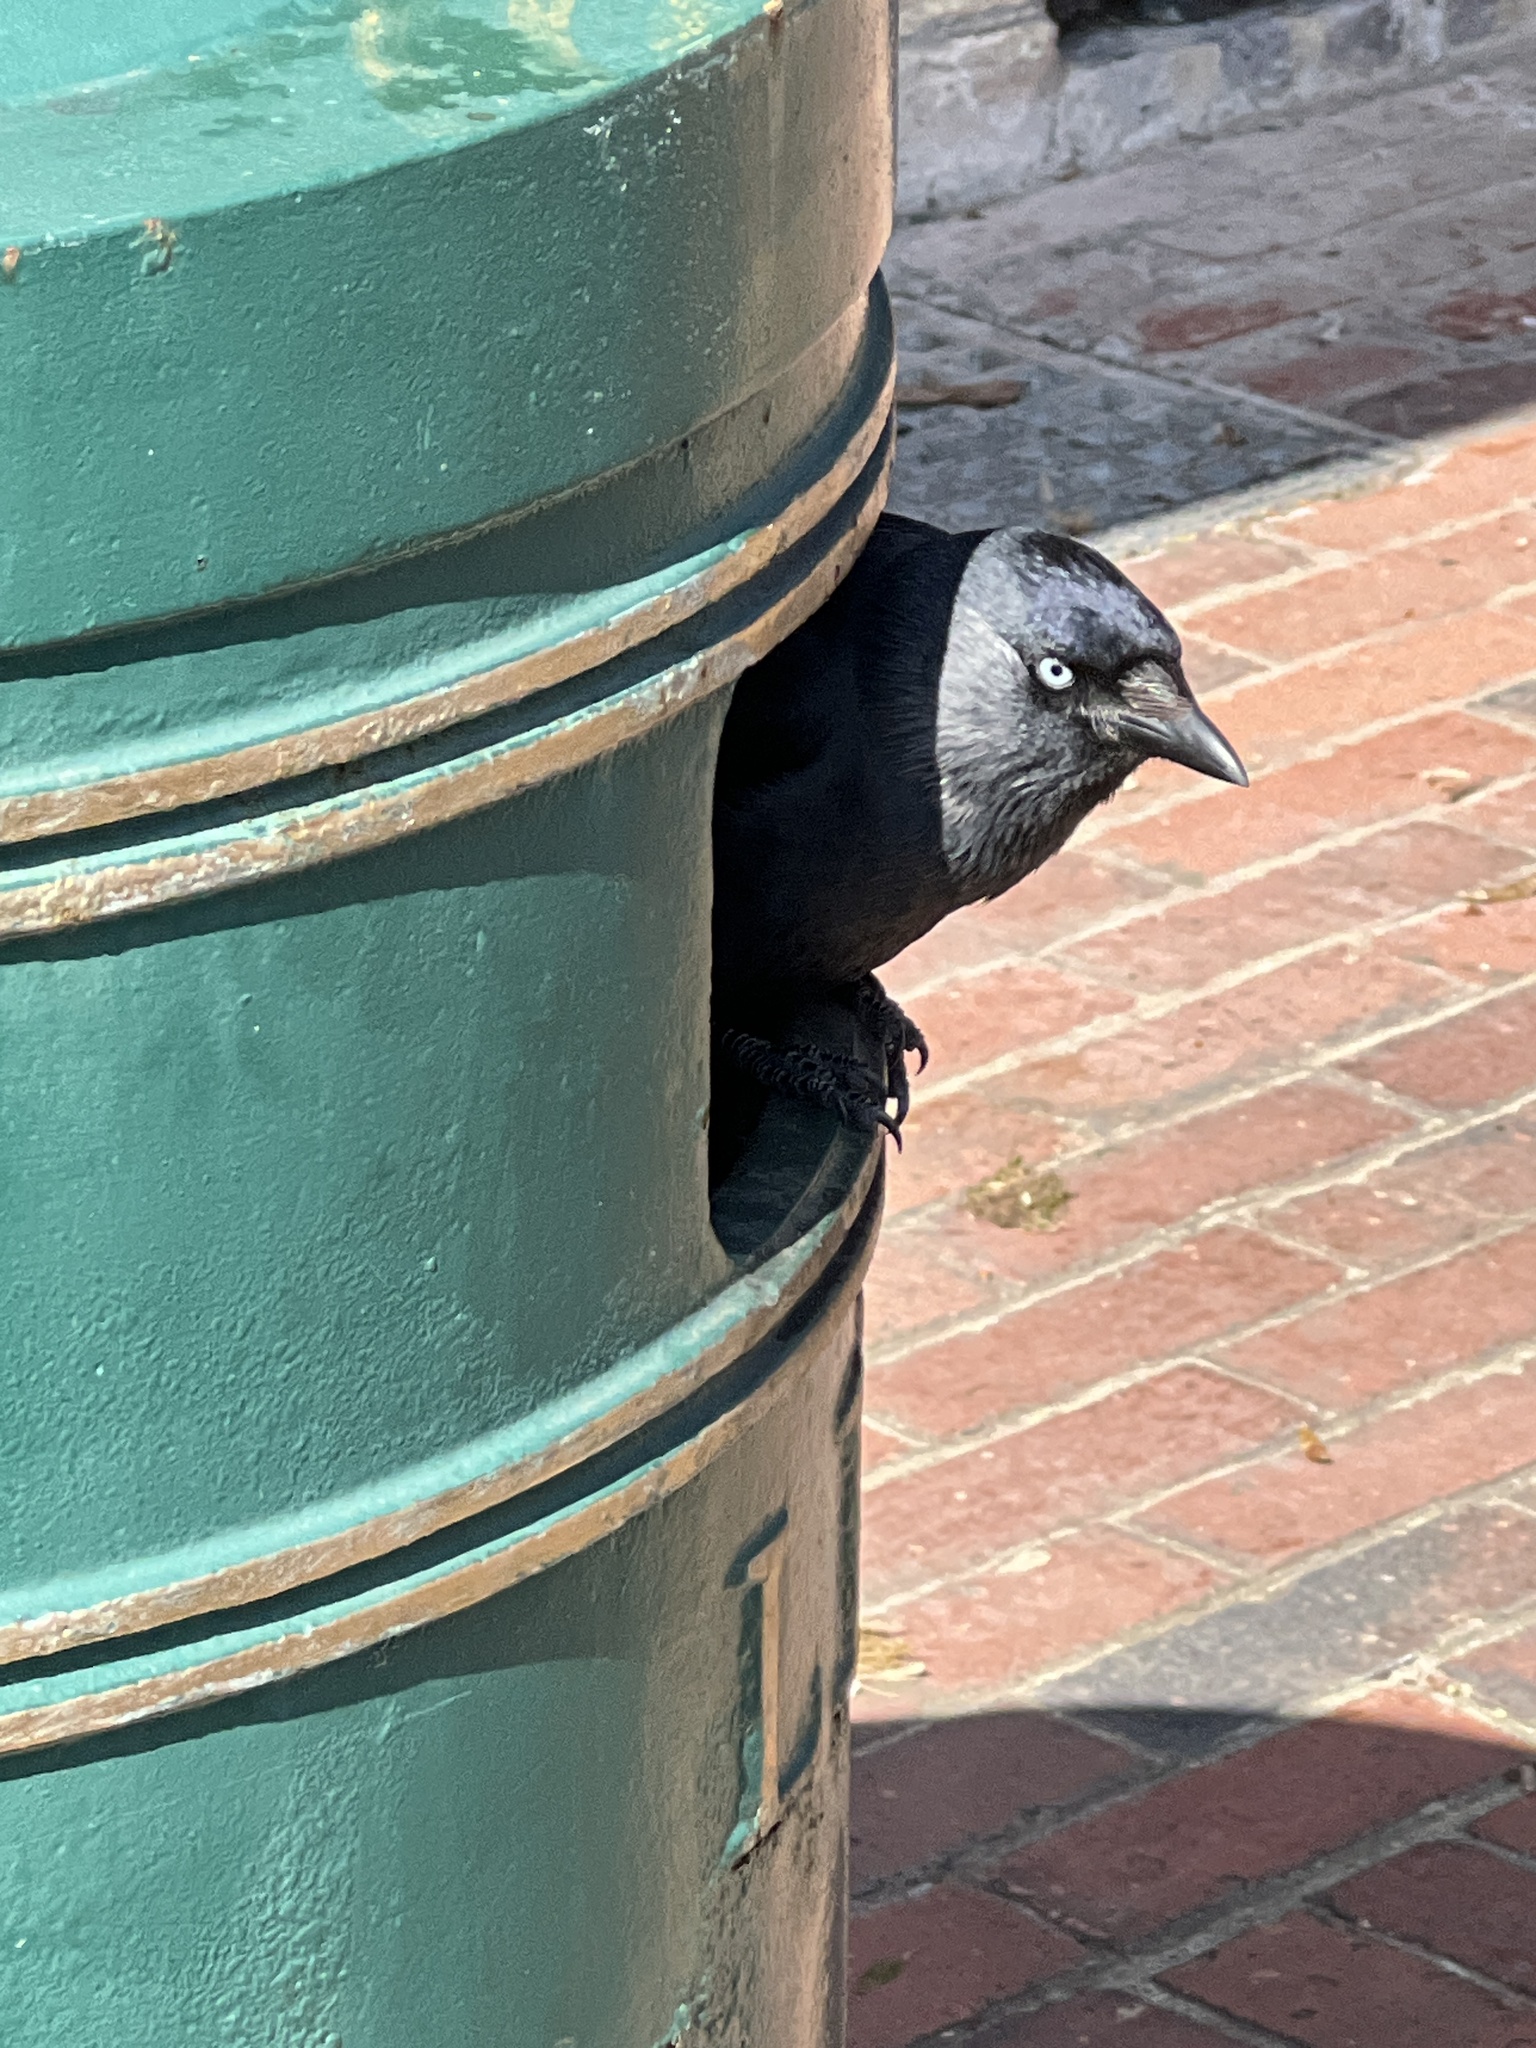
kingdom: Animalia
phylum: Chordata
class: Aves
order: Passeriformes
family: Corvidae
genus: Coloeus
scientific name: Coloeus monedula
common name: Western jackdaw
